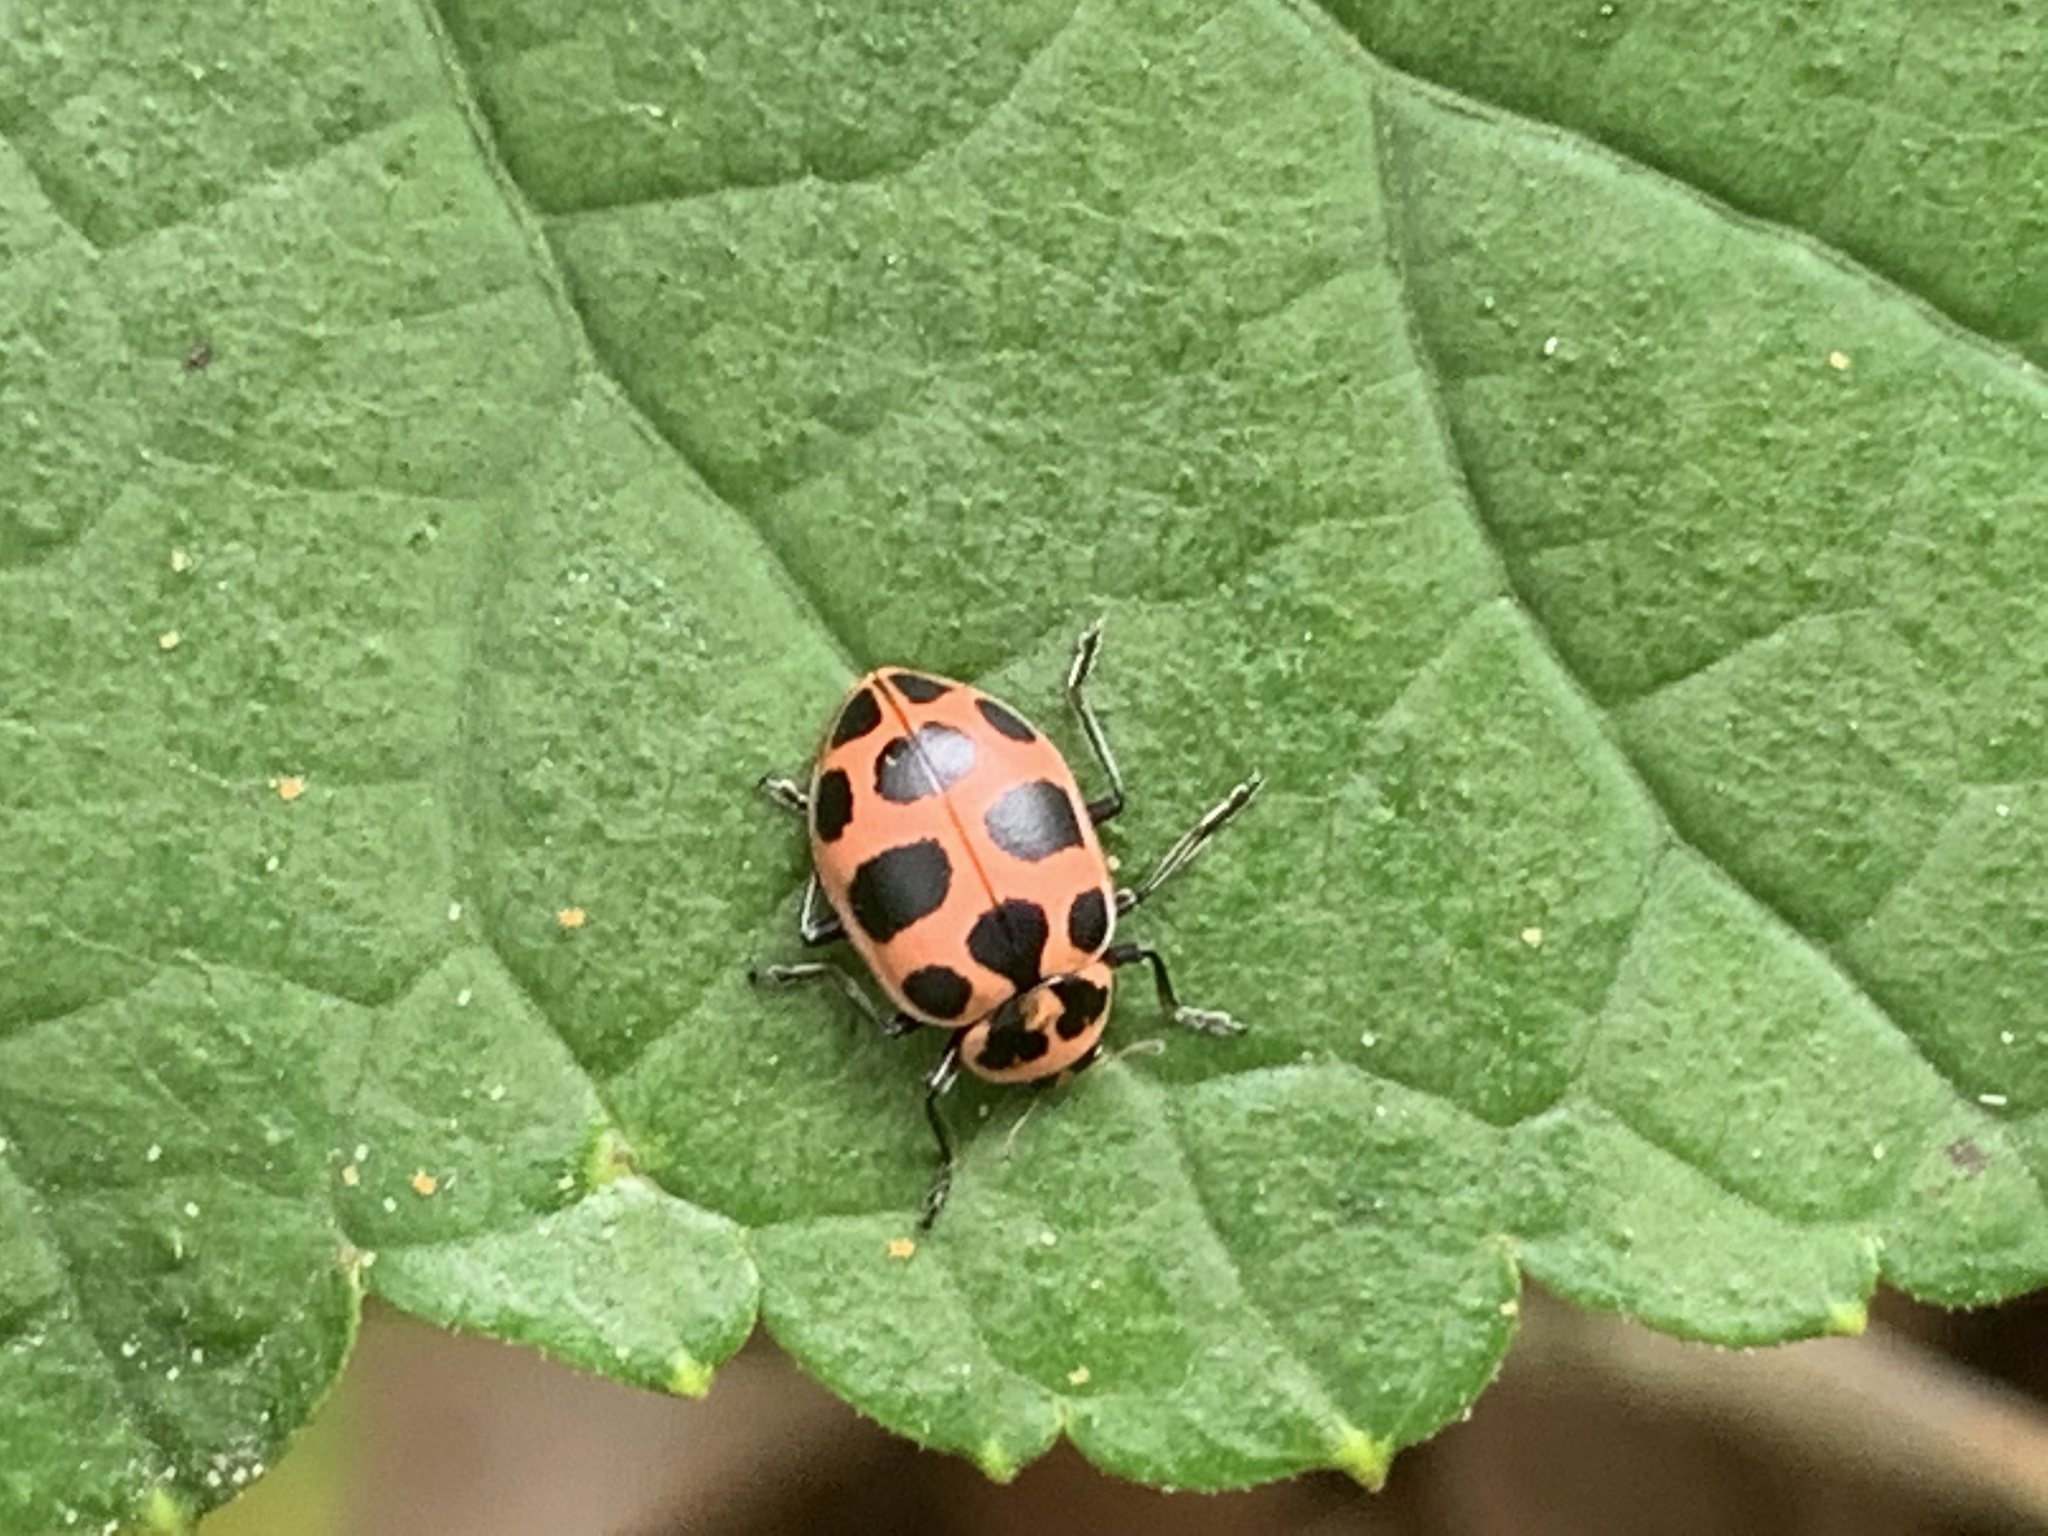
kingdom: Animalia
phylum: Arthropoda
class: Insecta
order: Coleoptera
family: Coccinellidae
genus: Coleomegilla
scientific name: Coleomegilla maculata
